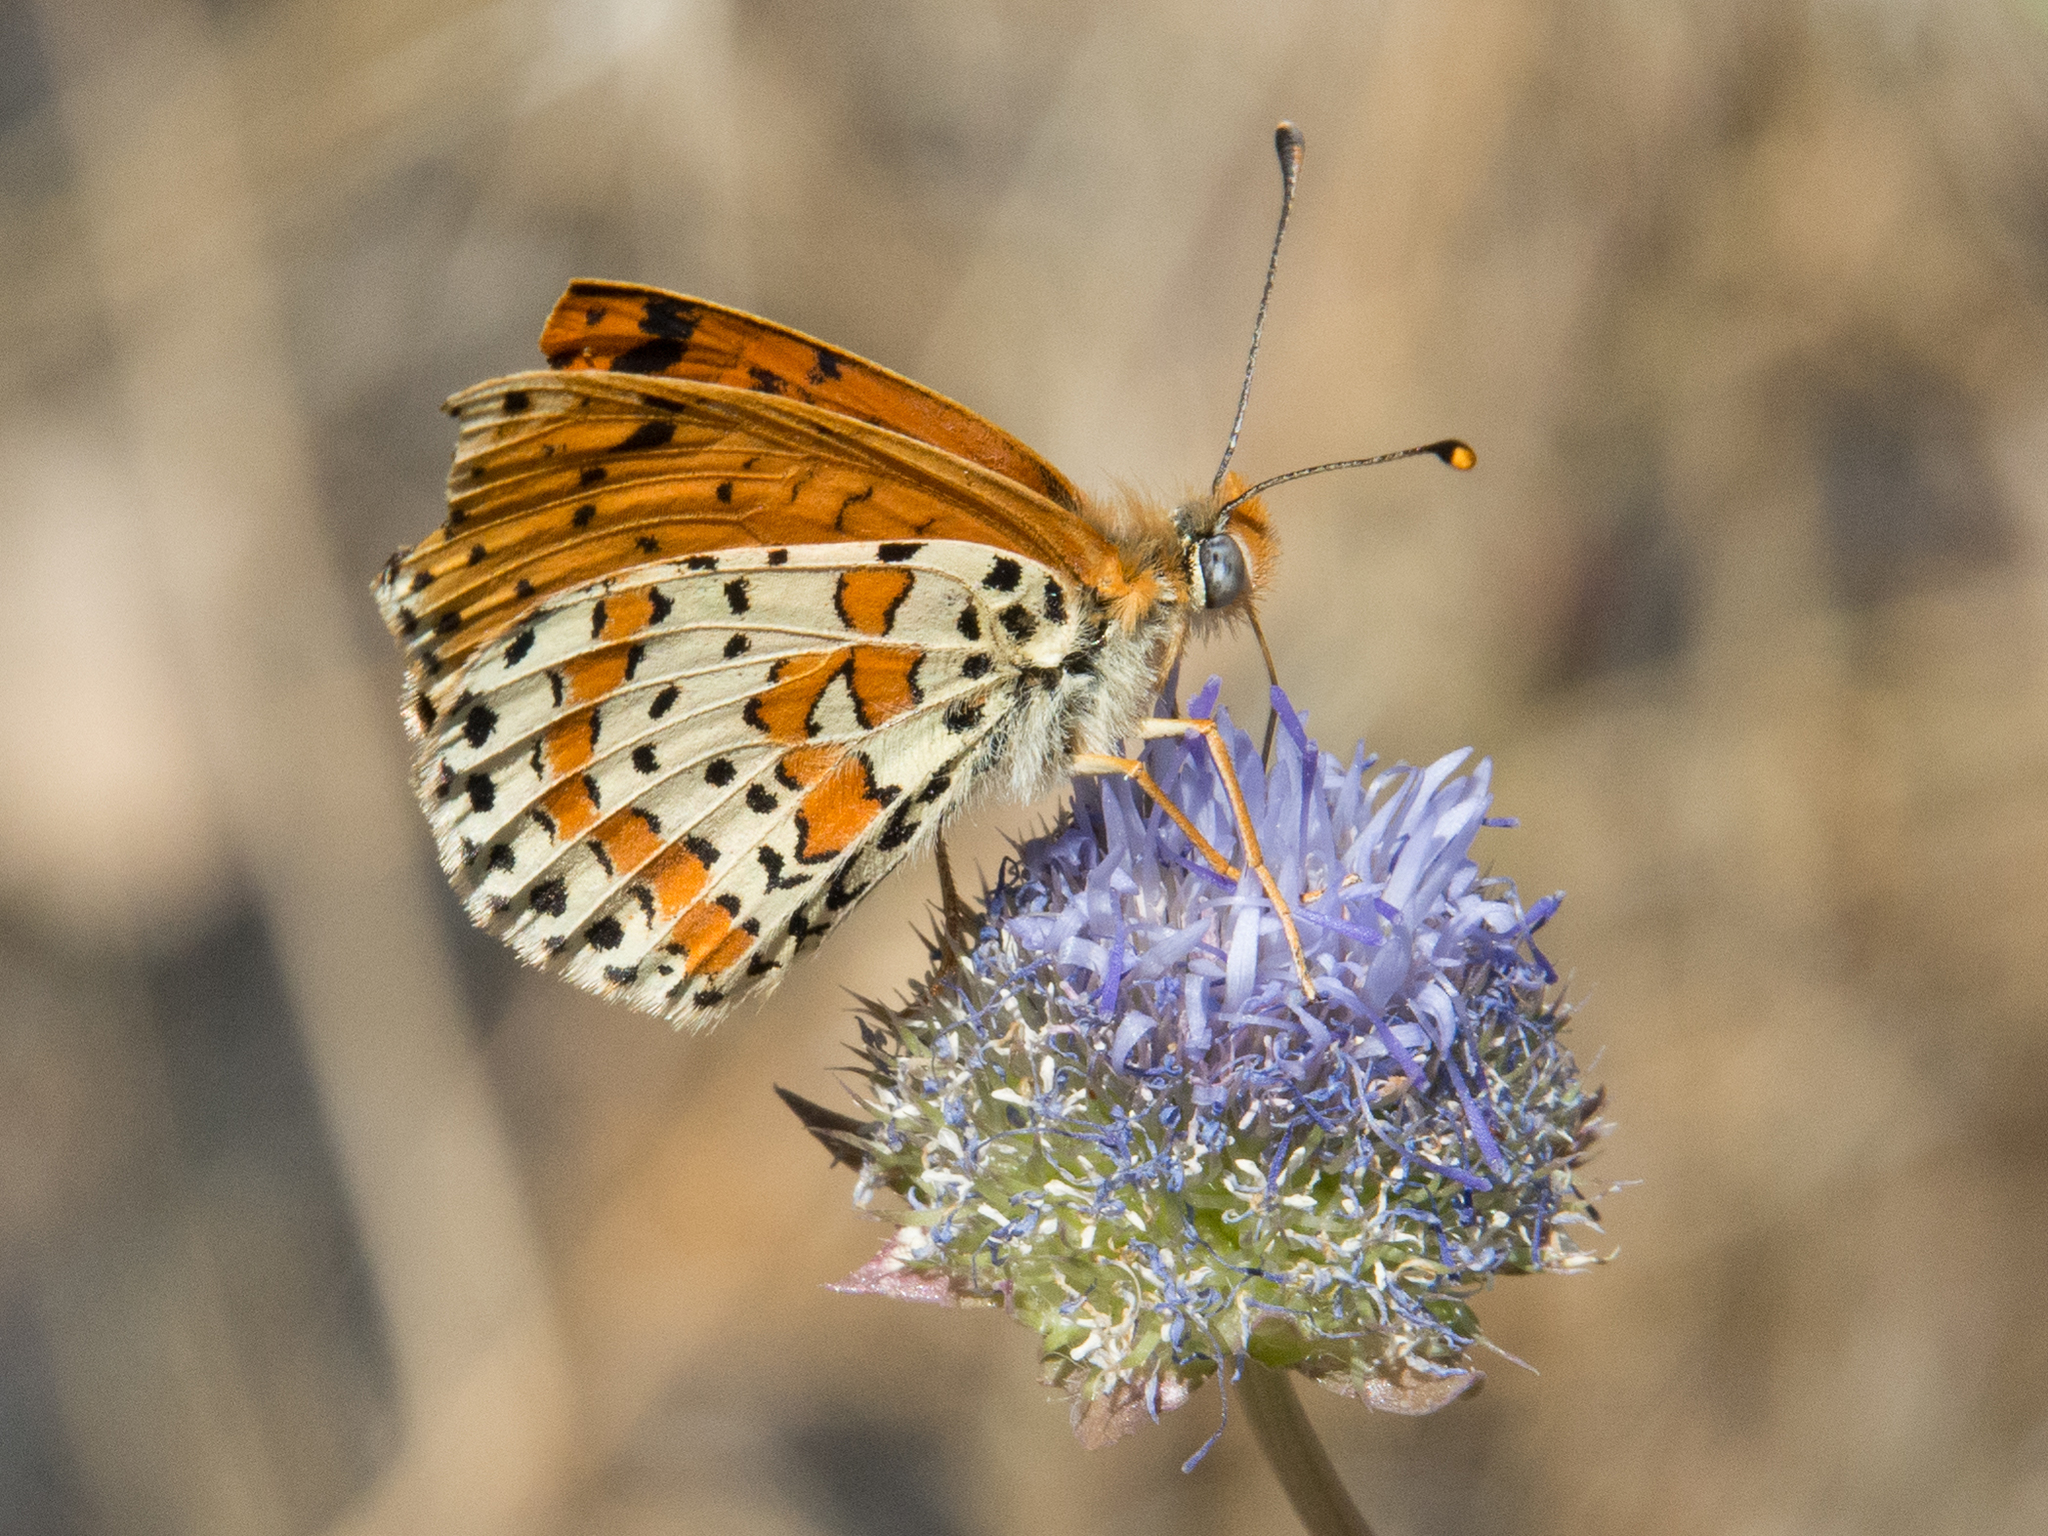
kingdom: Animalia
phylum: Arthropoda
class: Insecta
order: Lepidoptera
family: Nymphalidae
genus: Melitaea
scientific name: Melitaea didyma
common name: Spotted fritillary
